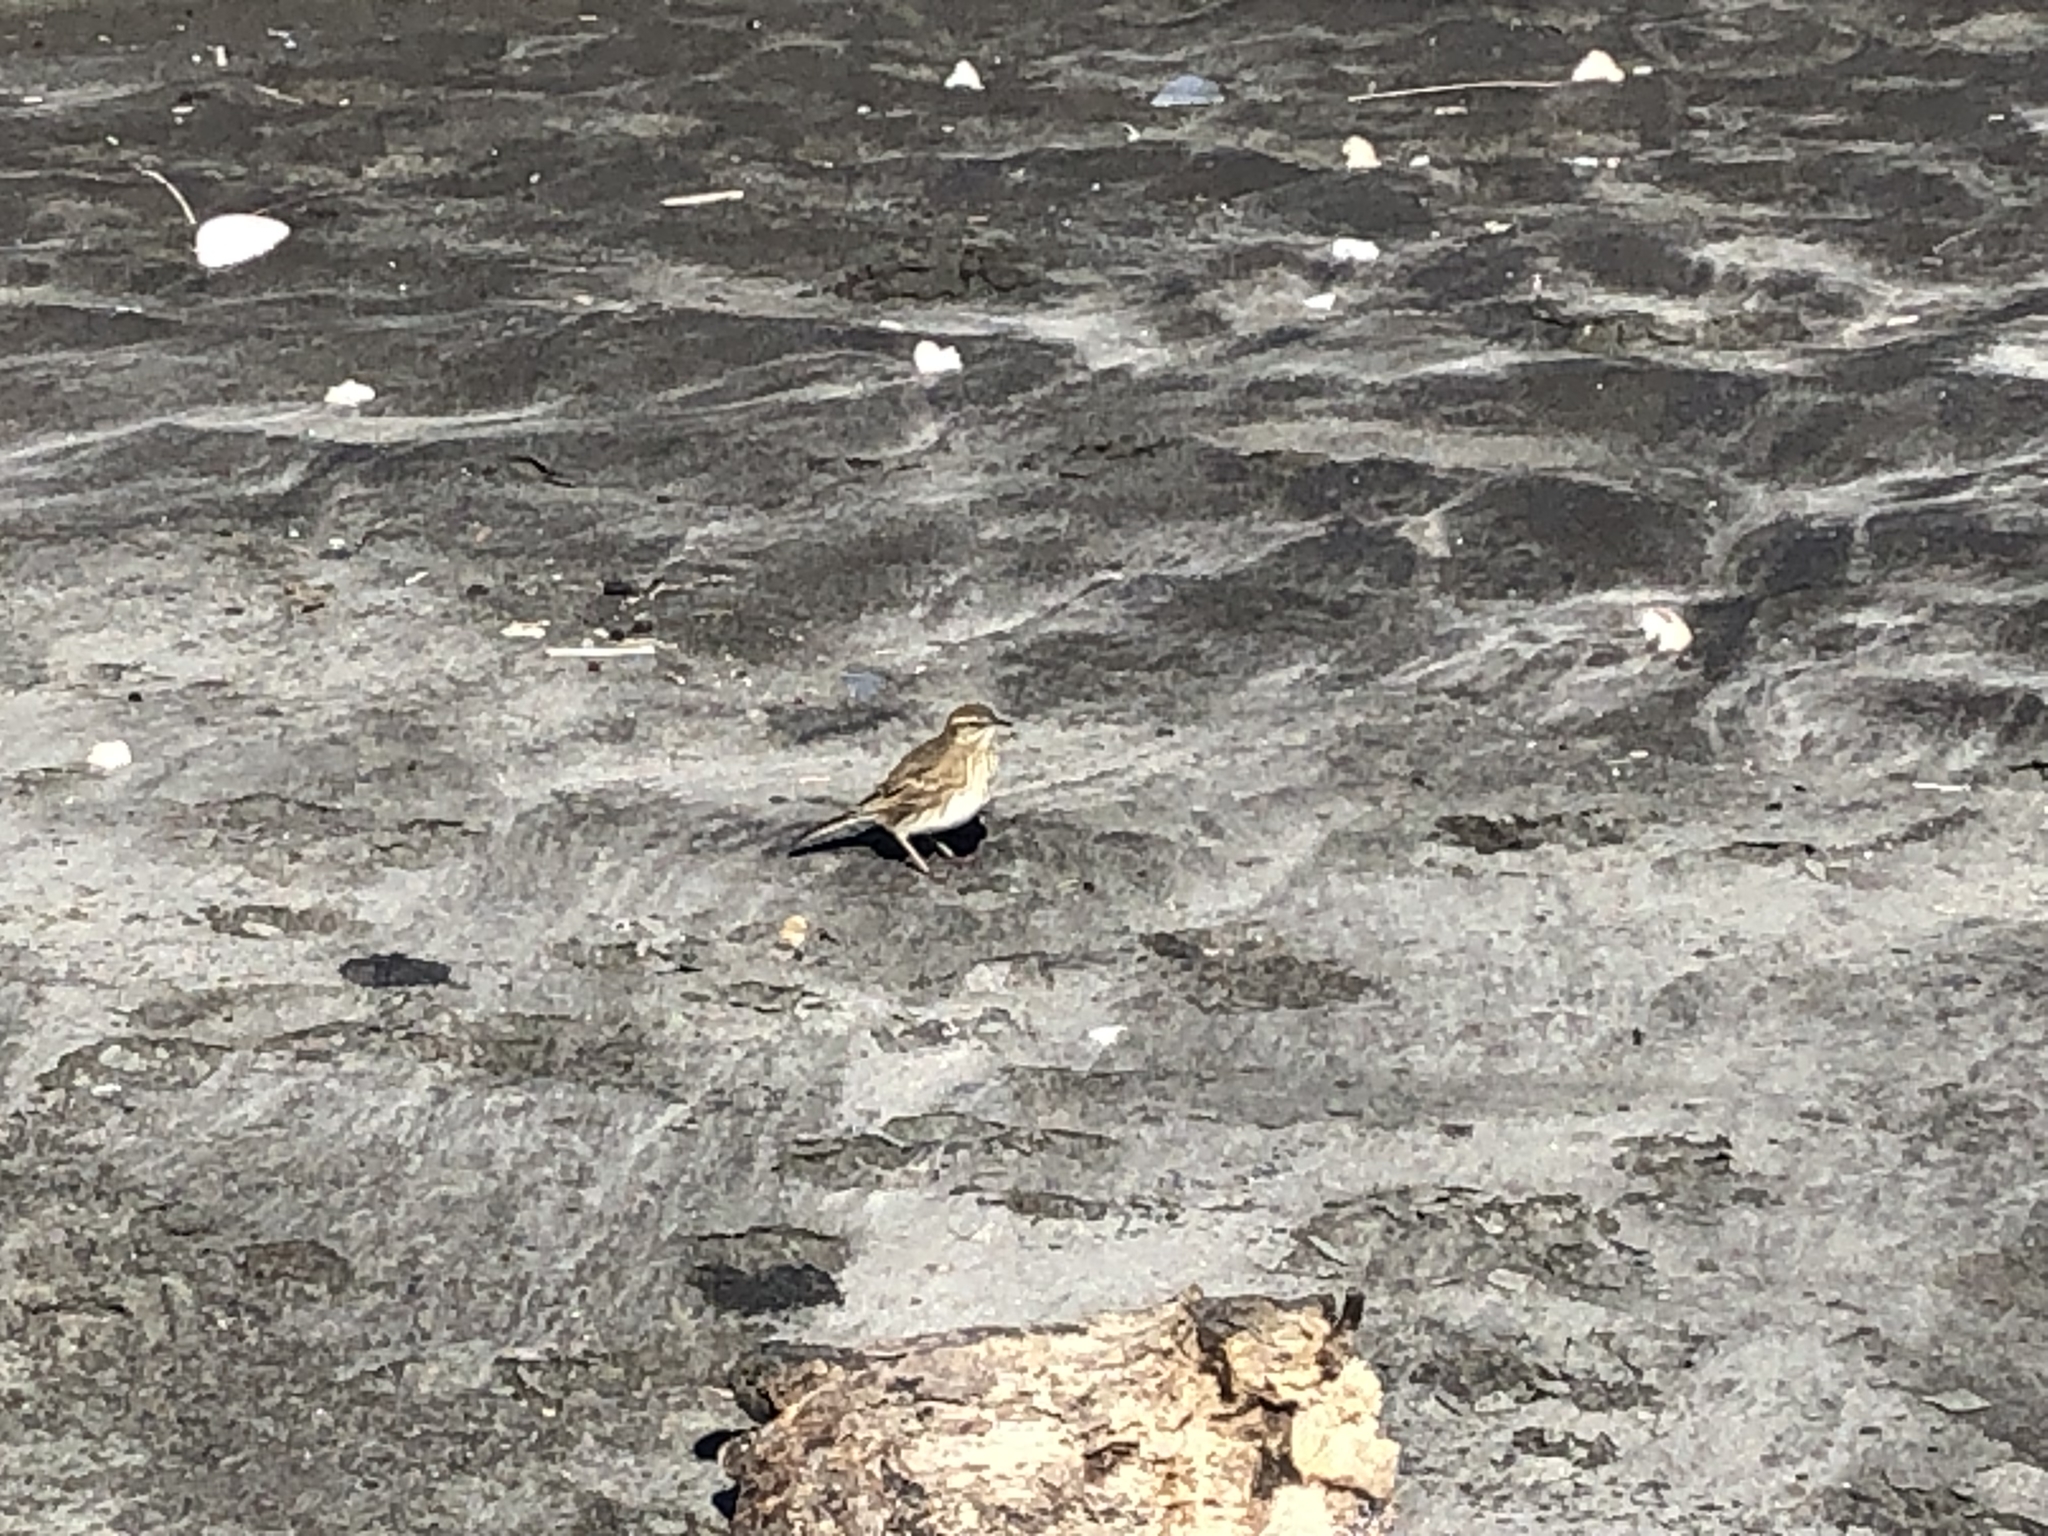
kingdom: Animalia
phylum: Chordata
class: Aves
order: Passeriformes
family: Motacillidae
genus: Anthus
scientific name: Anthus novaeseelandiae
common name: New zealand pipit
